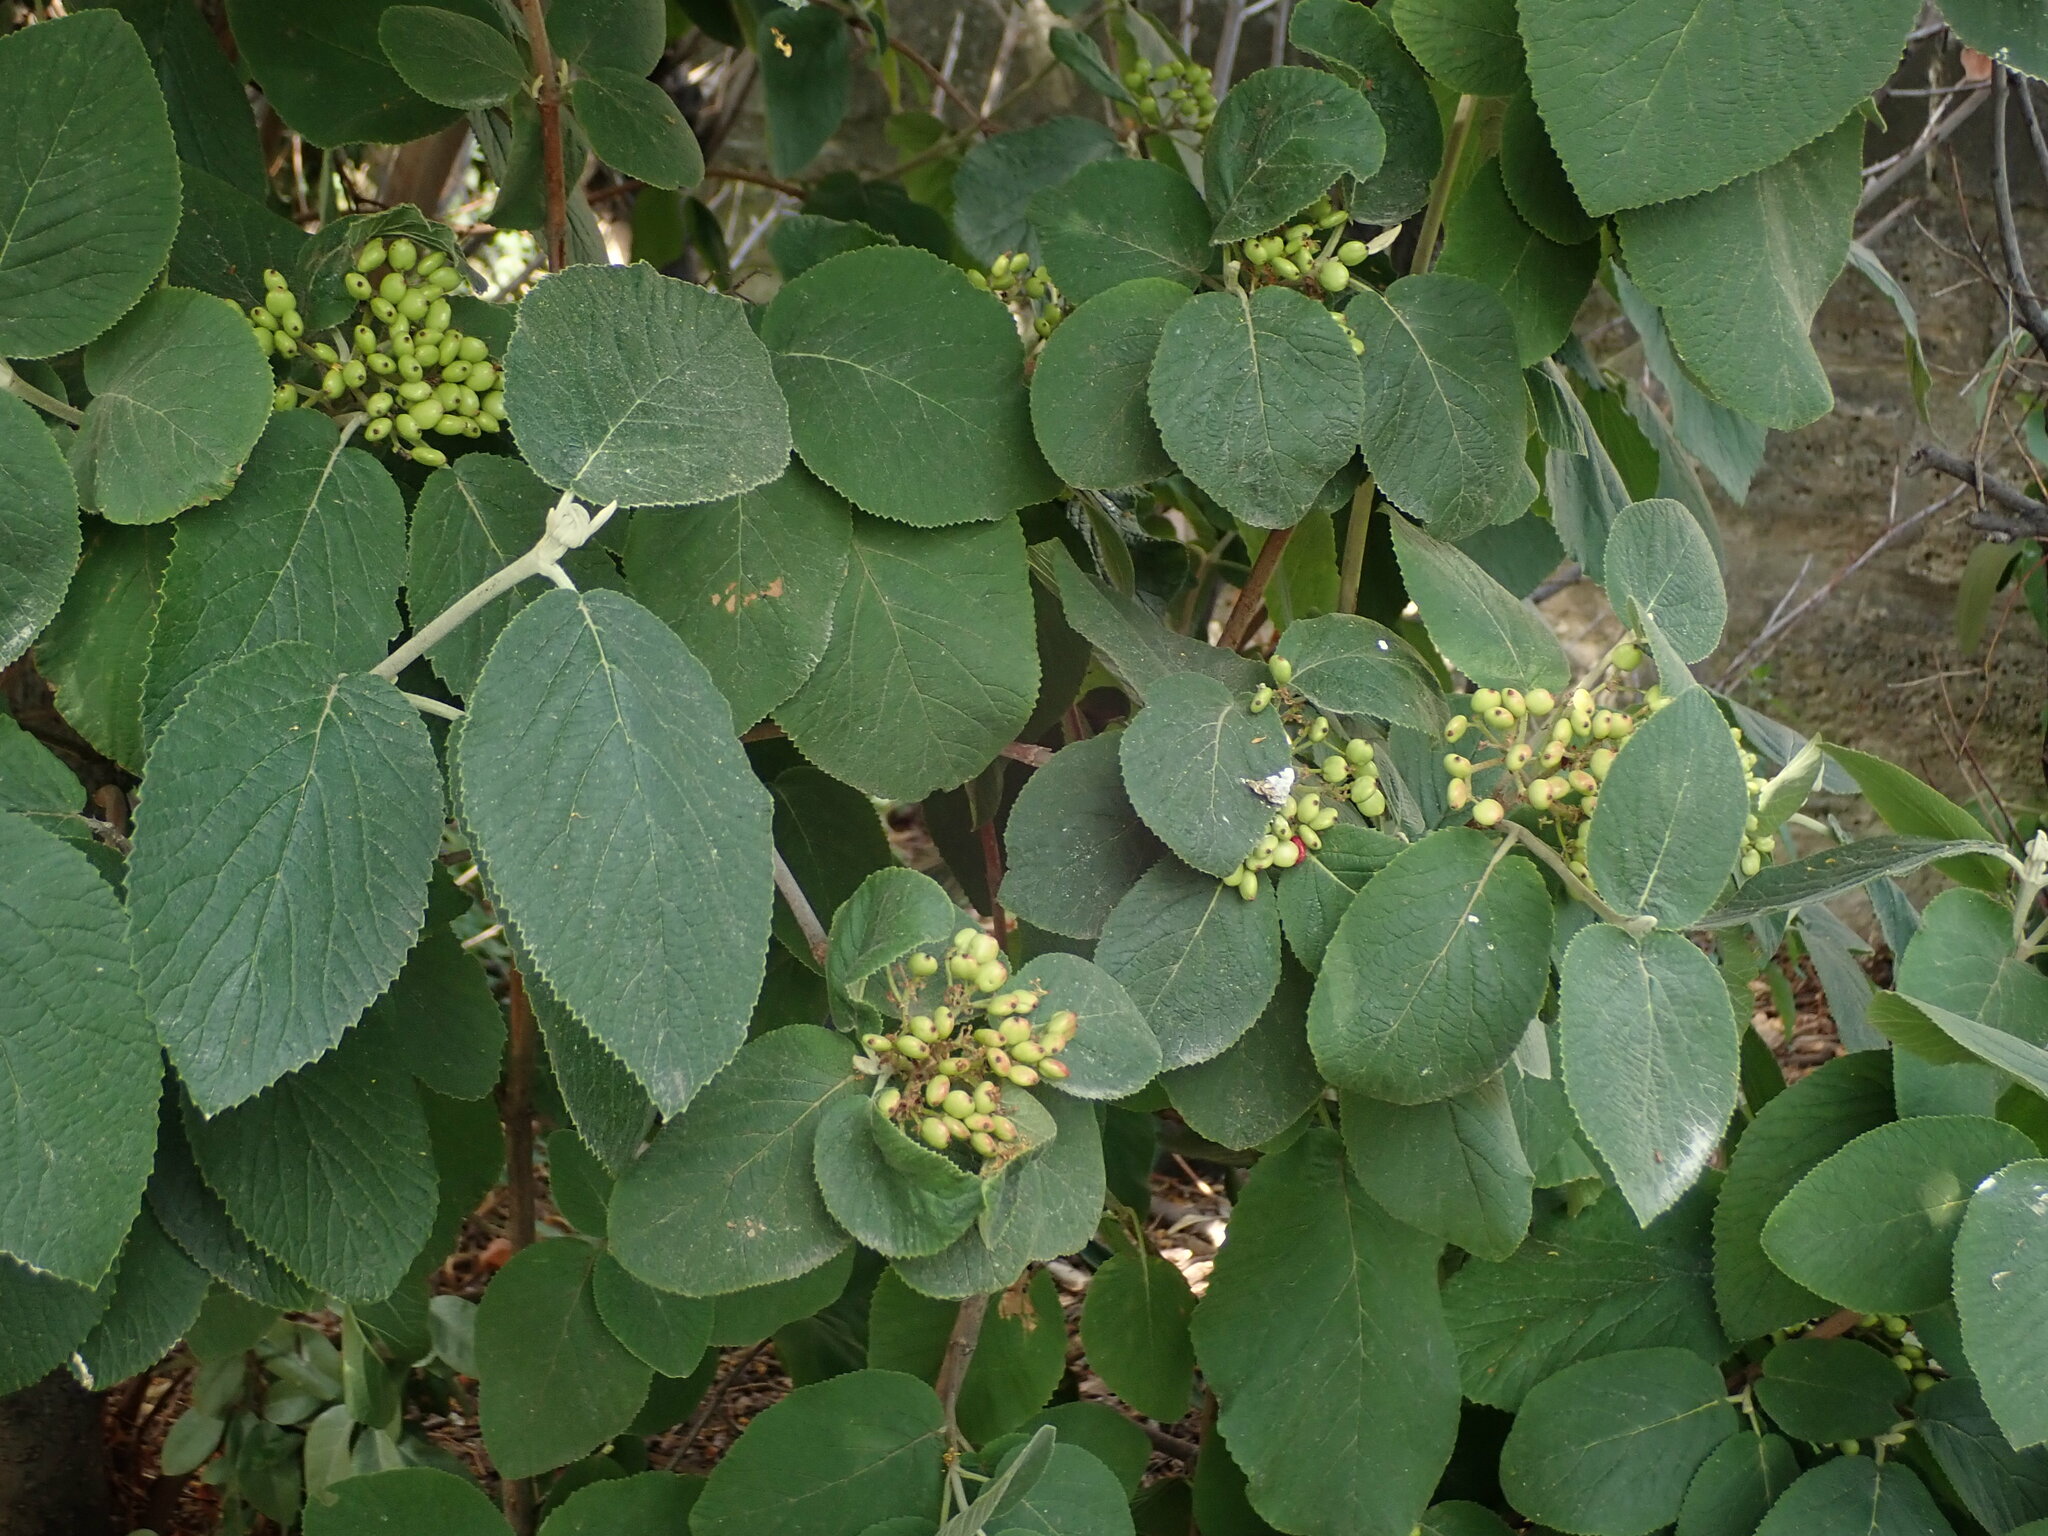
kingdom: Plantae
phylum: Tracheophyta
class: Magnoliopsida
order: Dipsacales
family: Viburnaceae
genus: Viburnum
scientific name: Viburnum lantana
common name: Wayfaring tree
